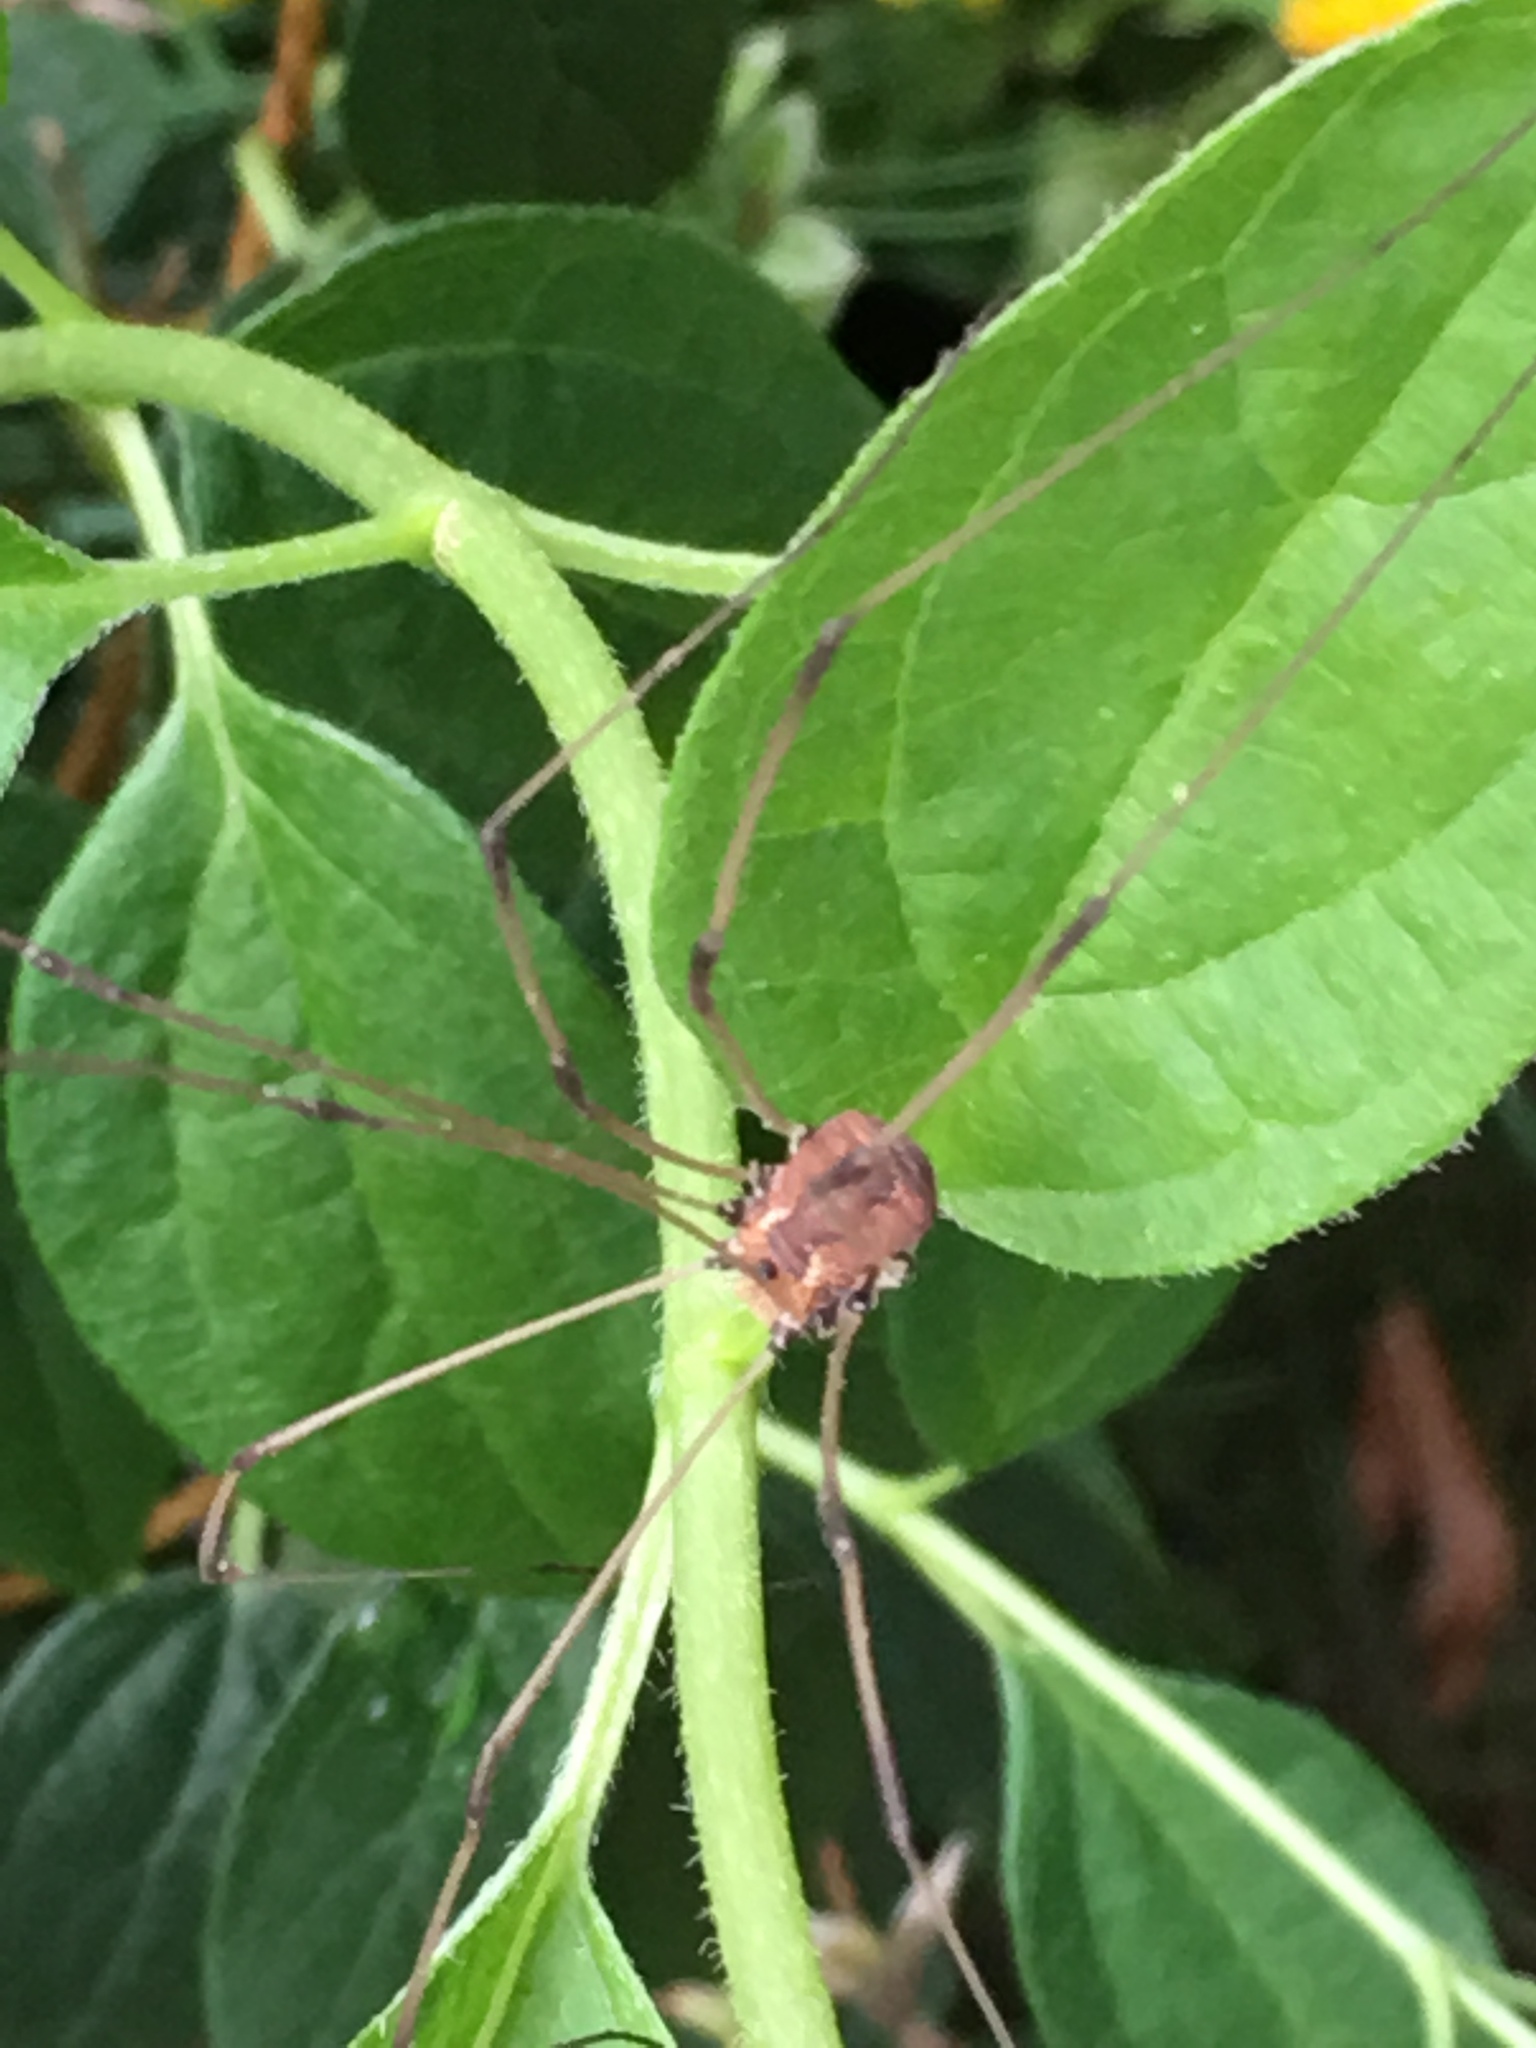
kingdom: Animalia
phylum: Arthropoda
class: Arachnida
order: Opiliones
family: Sclerosomatidae
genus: Leiobunum
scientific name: Leiobunum vittatum
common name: Eastern harvestman
